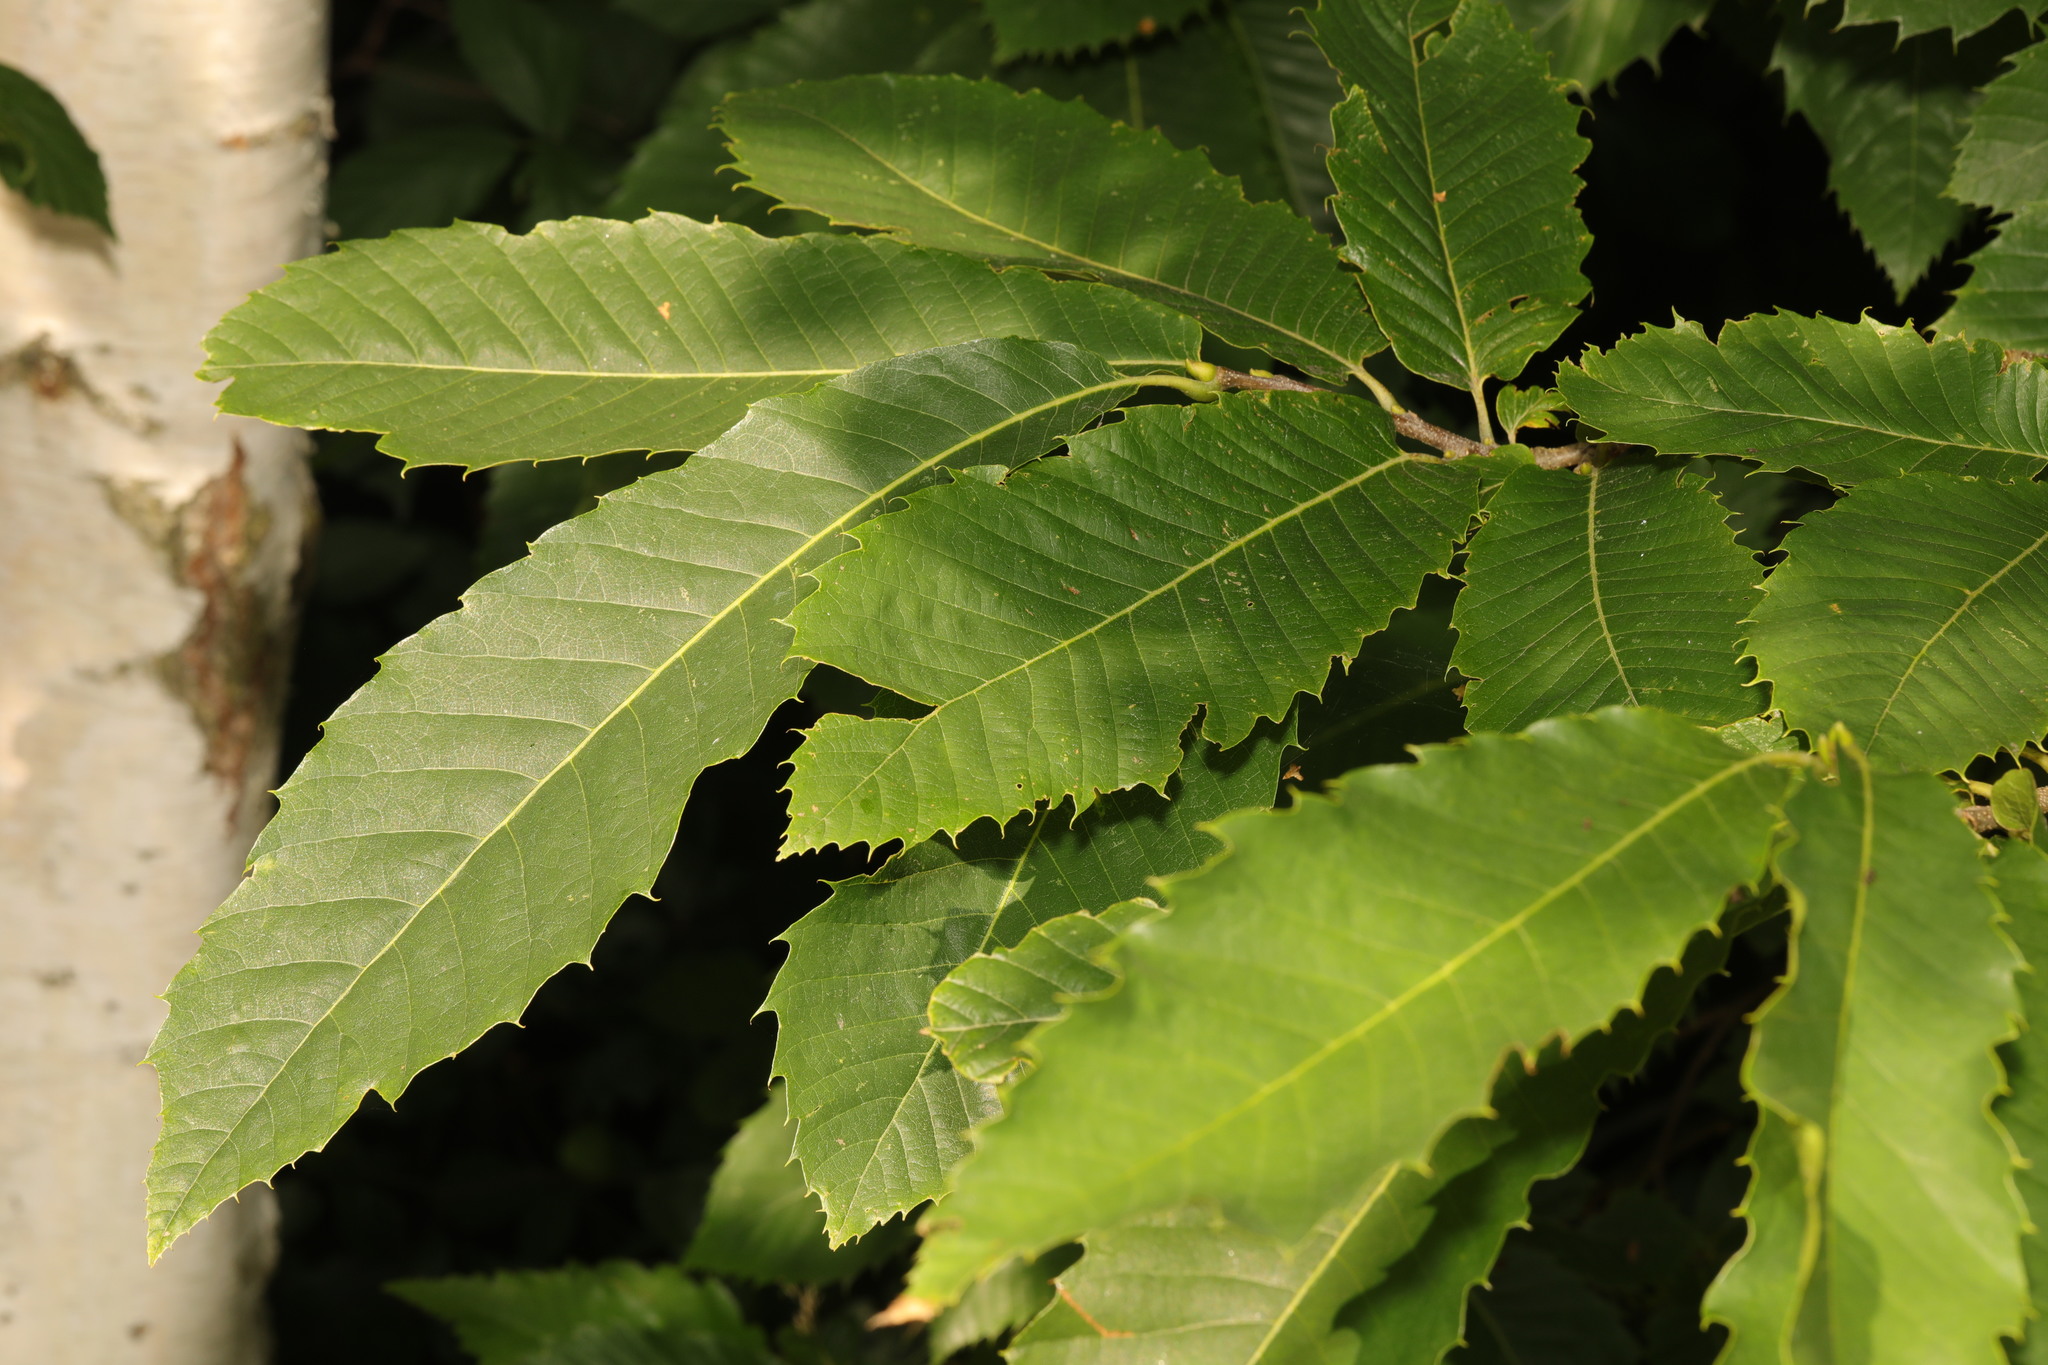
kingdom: Plantae
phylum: Tracheophyta
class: Magnoliopsida
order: Fagales
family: Fagaceae
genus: Castanea
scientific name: Castanea sativa
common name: Sweet chestnut
